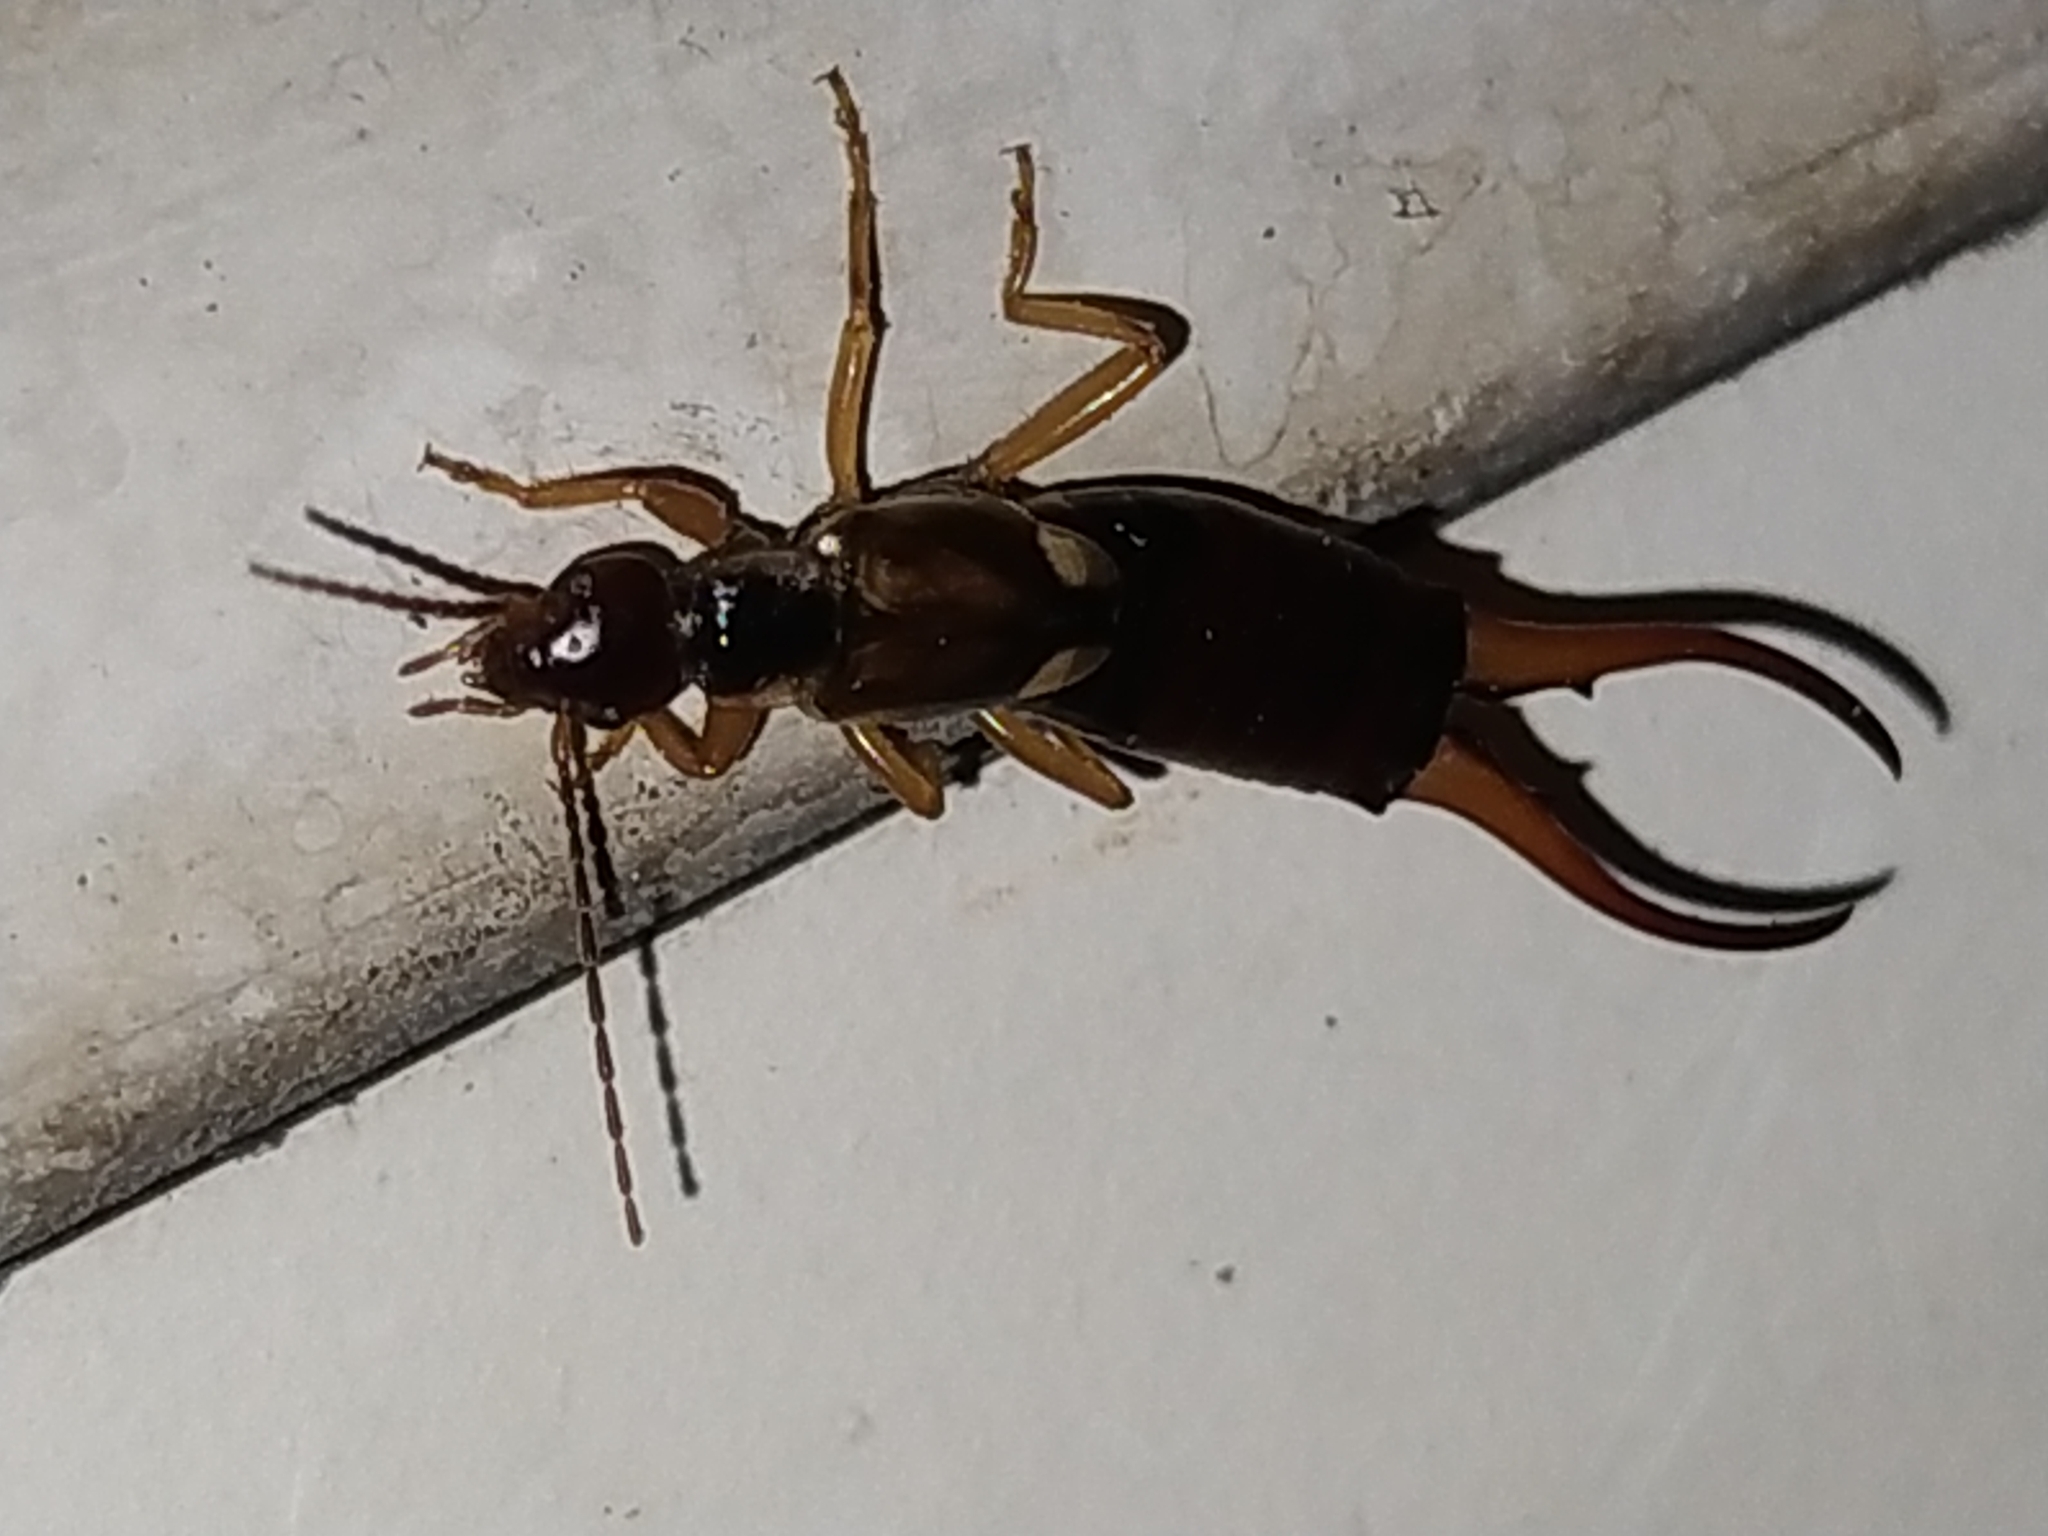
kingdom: Animalia
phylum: Arthropoda
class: Insecta
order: Dermaptera
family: Forficulidae
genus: Forficula
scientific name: Forficula
